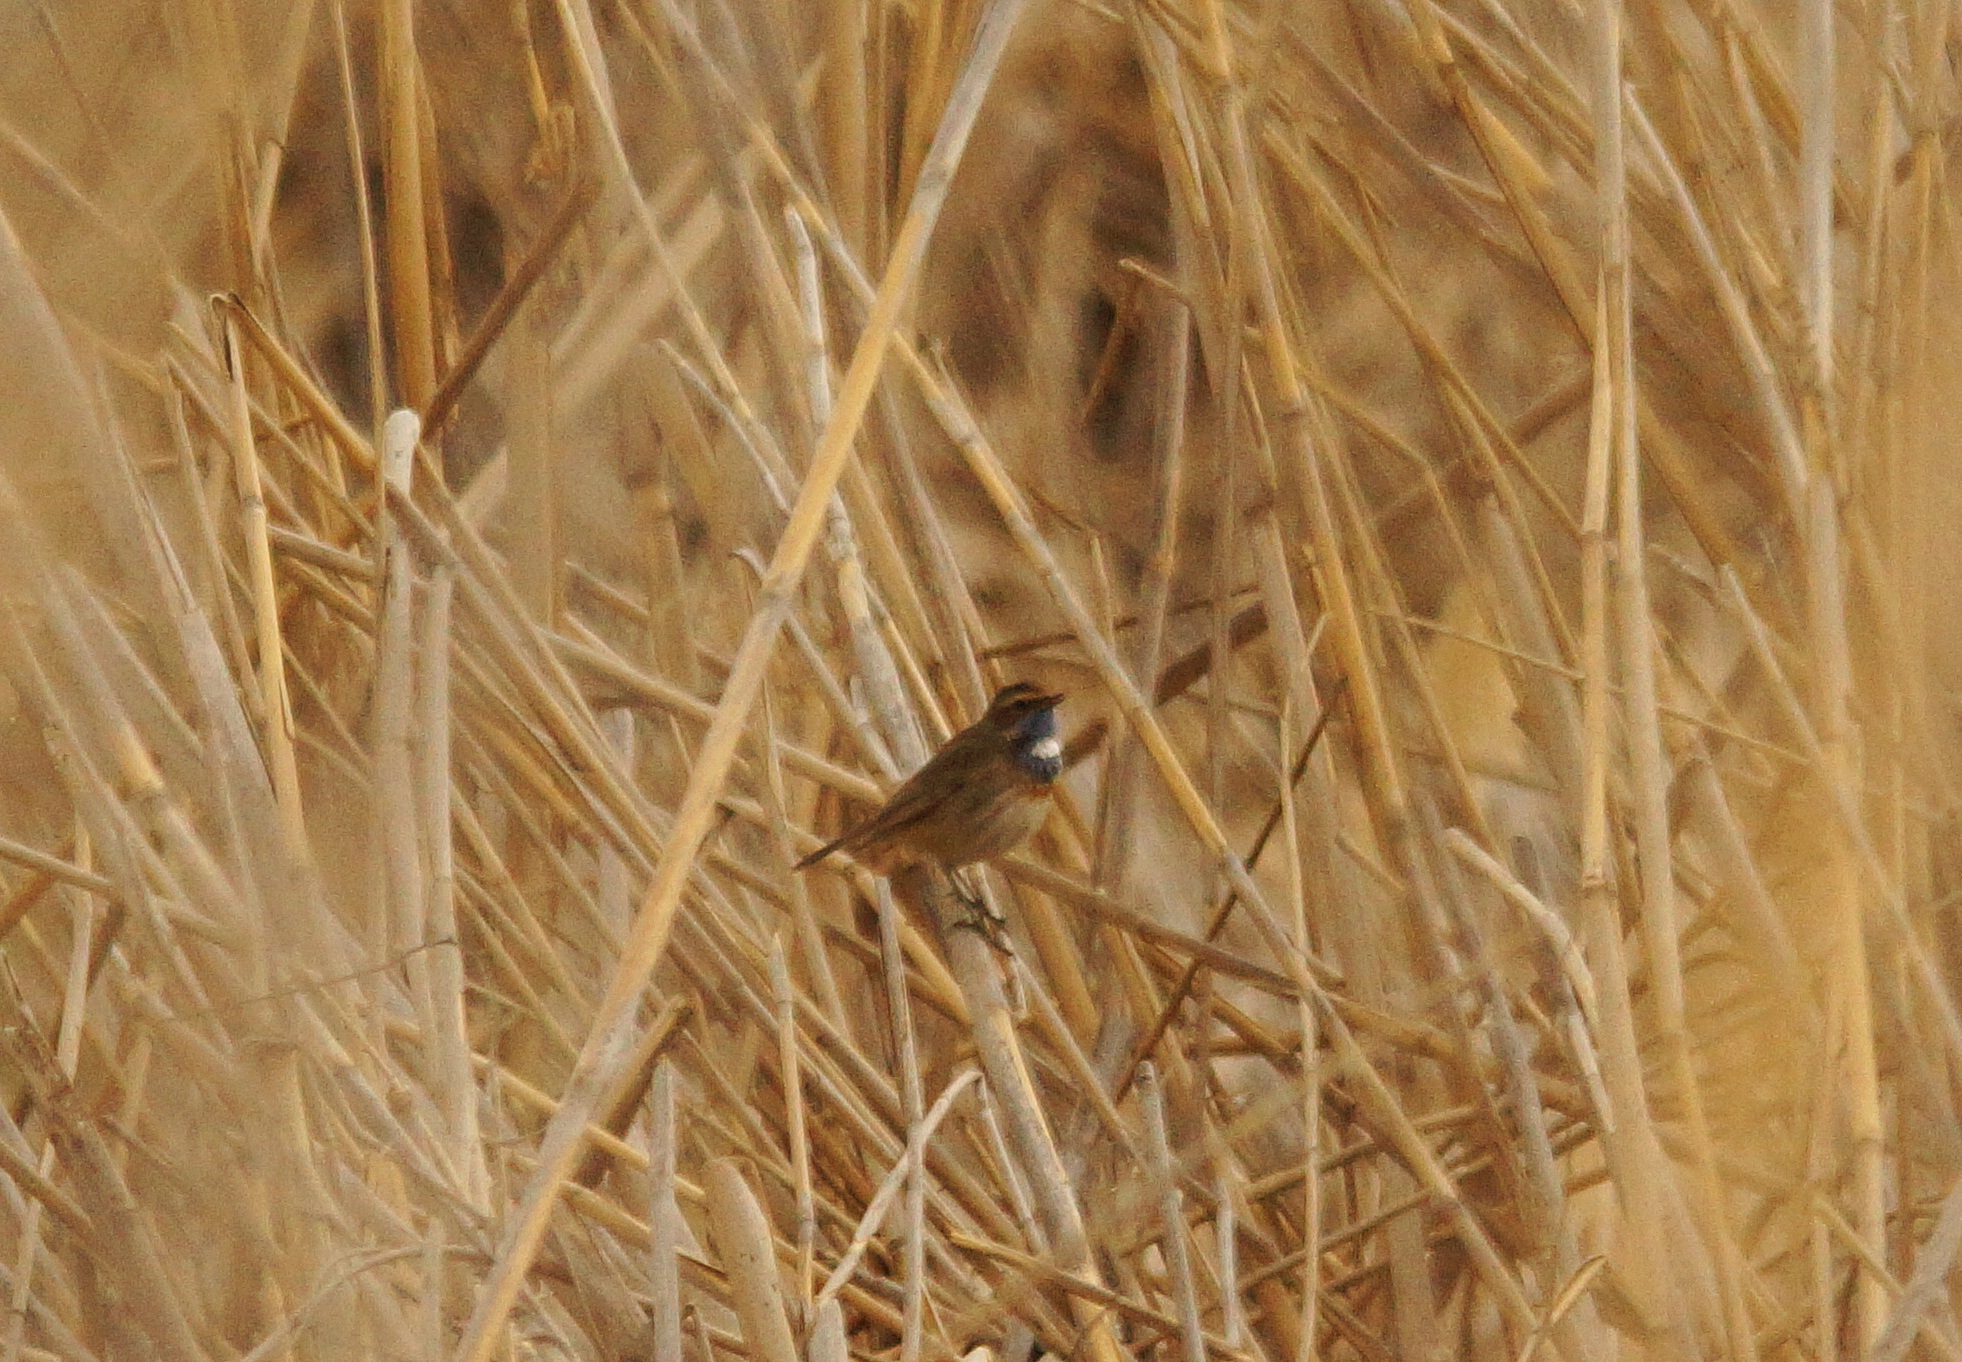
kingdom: Animalia
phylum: Chordata
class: Aves
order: Passeriformes
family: Muscicapidae
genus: Luscinia
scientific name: Luscinia svecica
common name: Bluethroat
